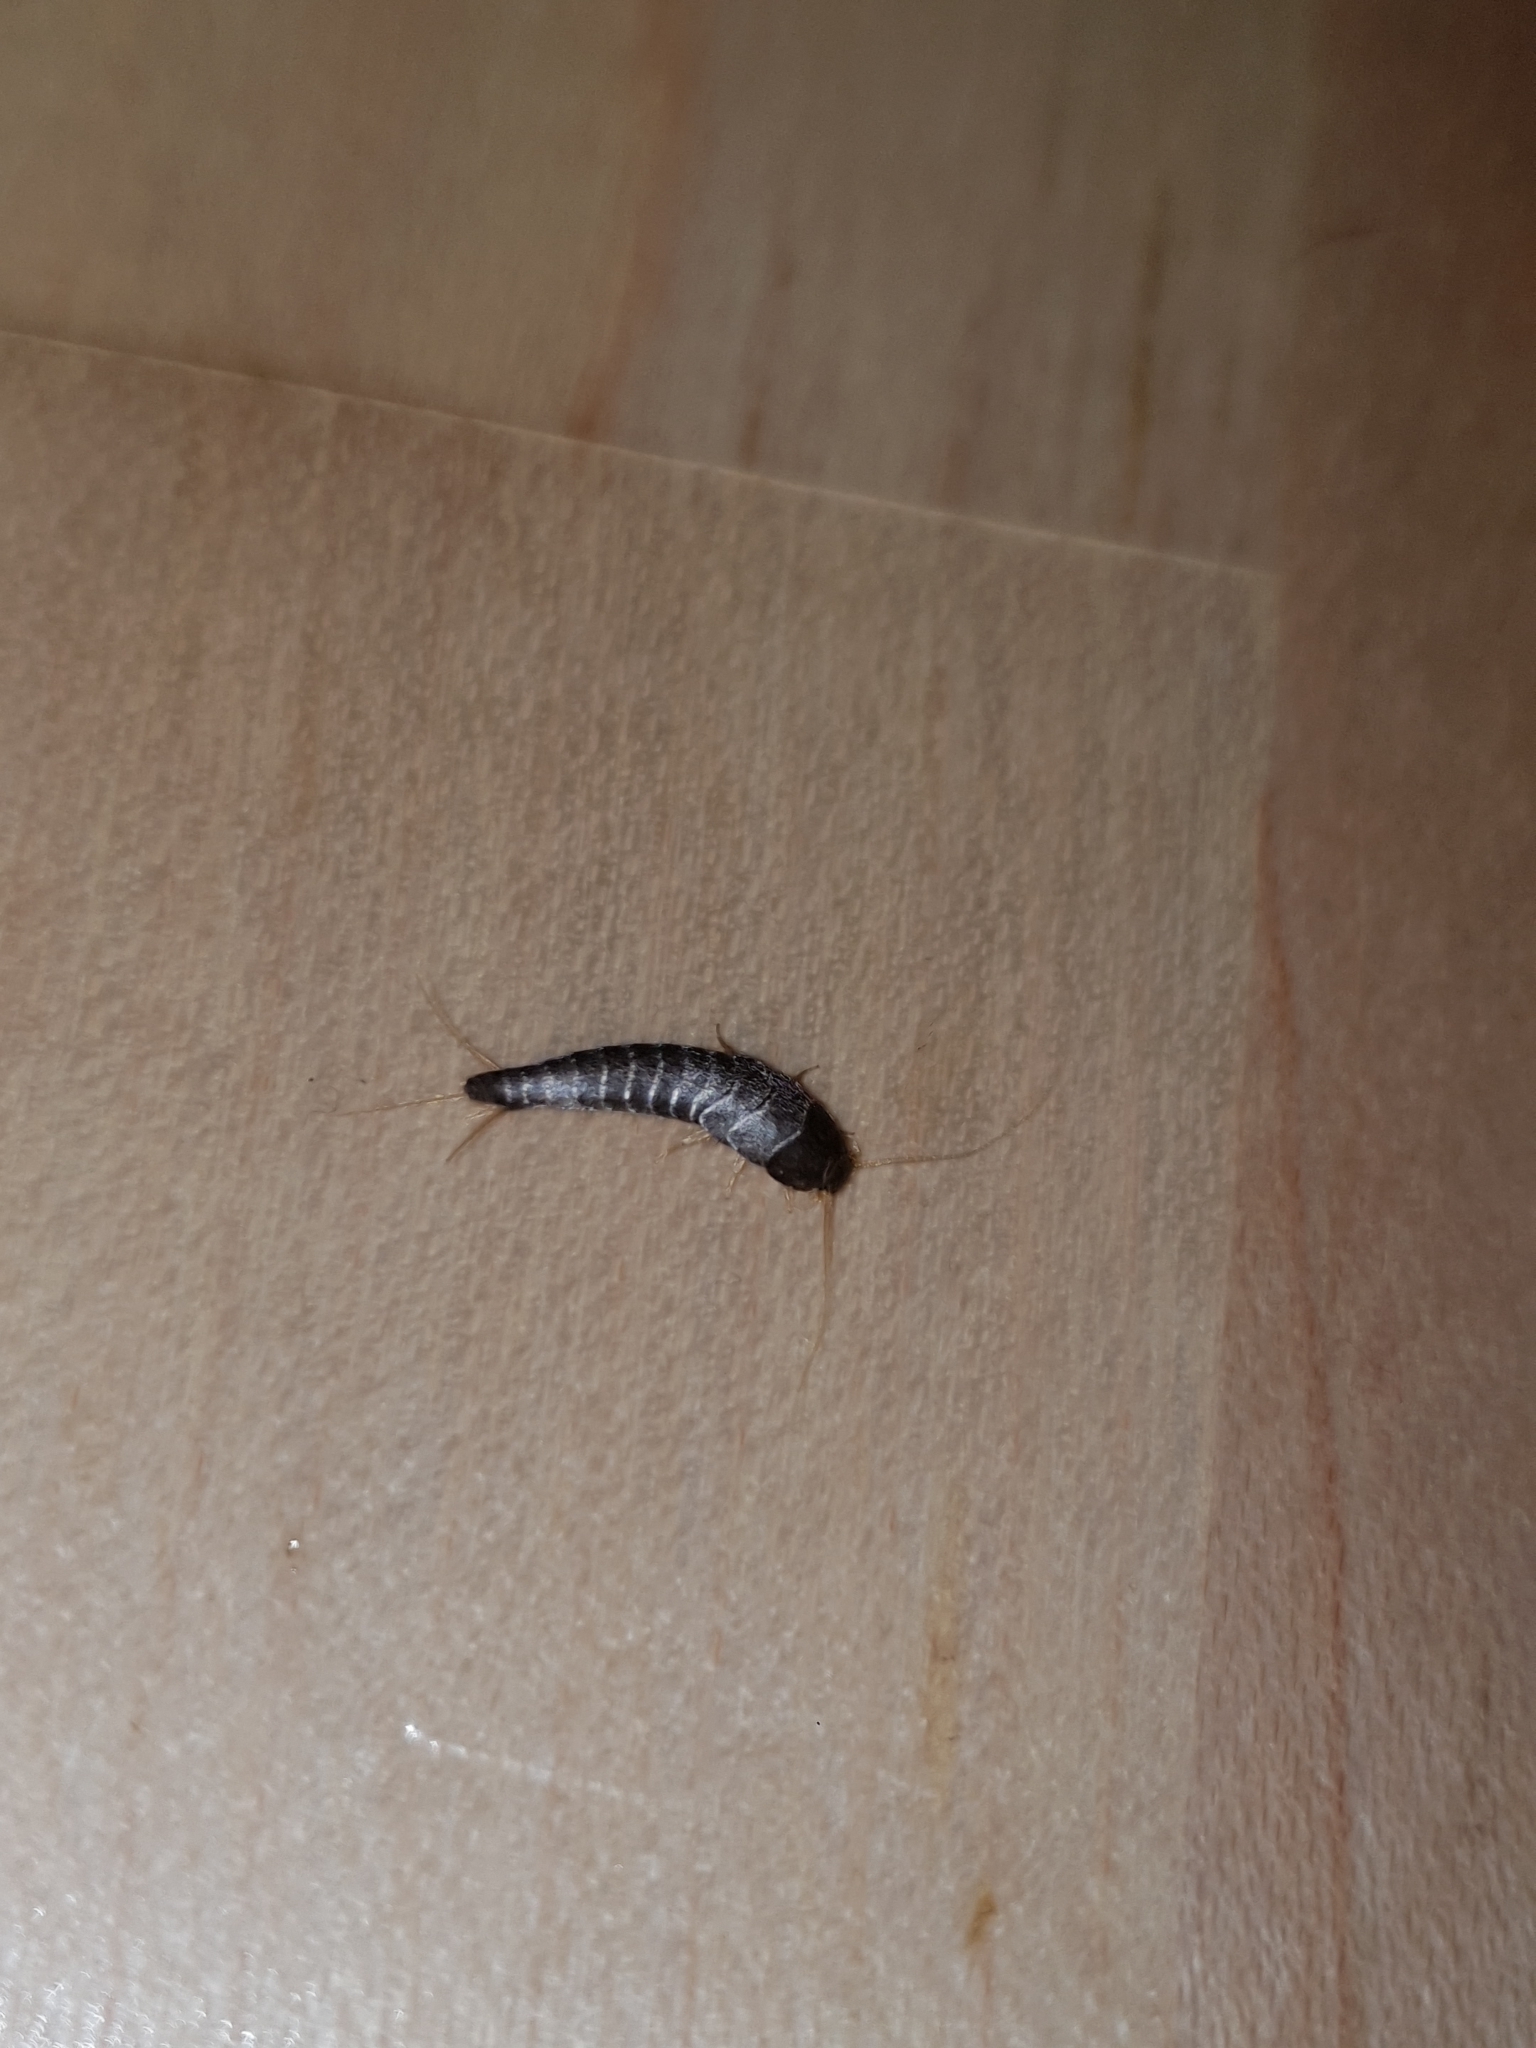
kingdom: Animalia
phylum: Arthropoda
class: Insecta
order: Zygentoma
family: Lepismatidae
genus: Lepisma
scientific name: Lepisma saccharinum
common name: Silverfish
